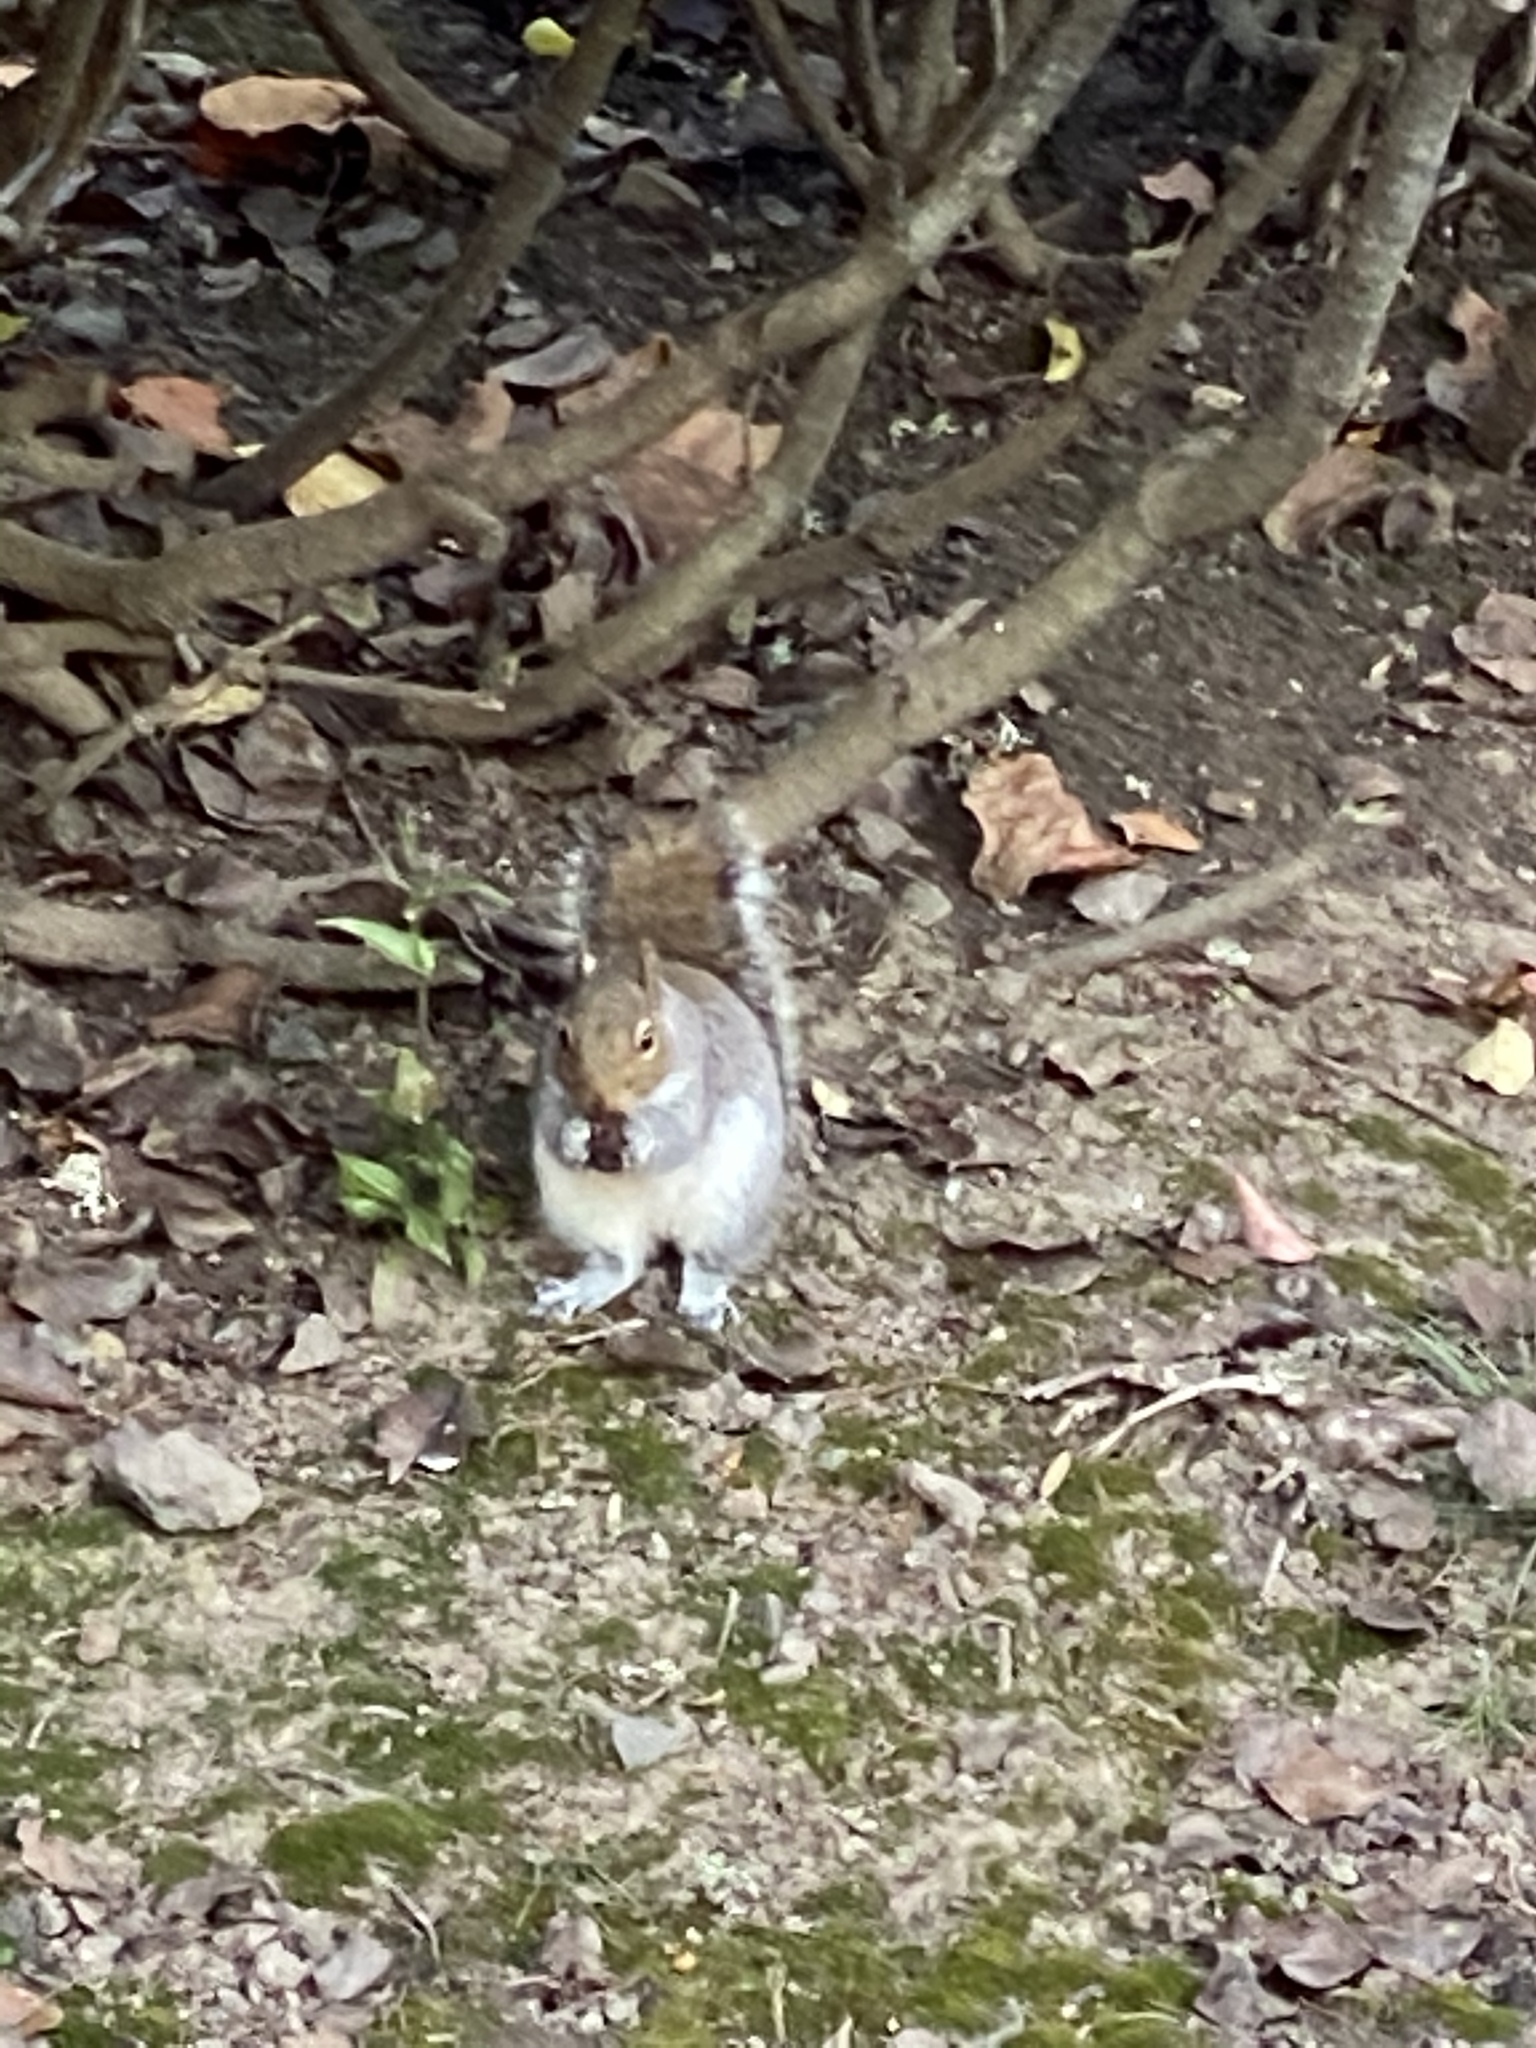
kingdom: Animalia
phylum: Chordata
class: Mammalia
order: Rodentia
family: Sciuridae
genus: Sciurus
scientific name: Sciurus carolinensis
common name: Eastern gray squirrel
